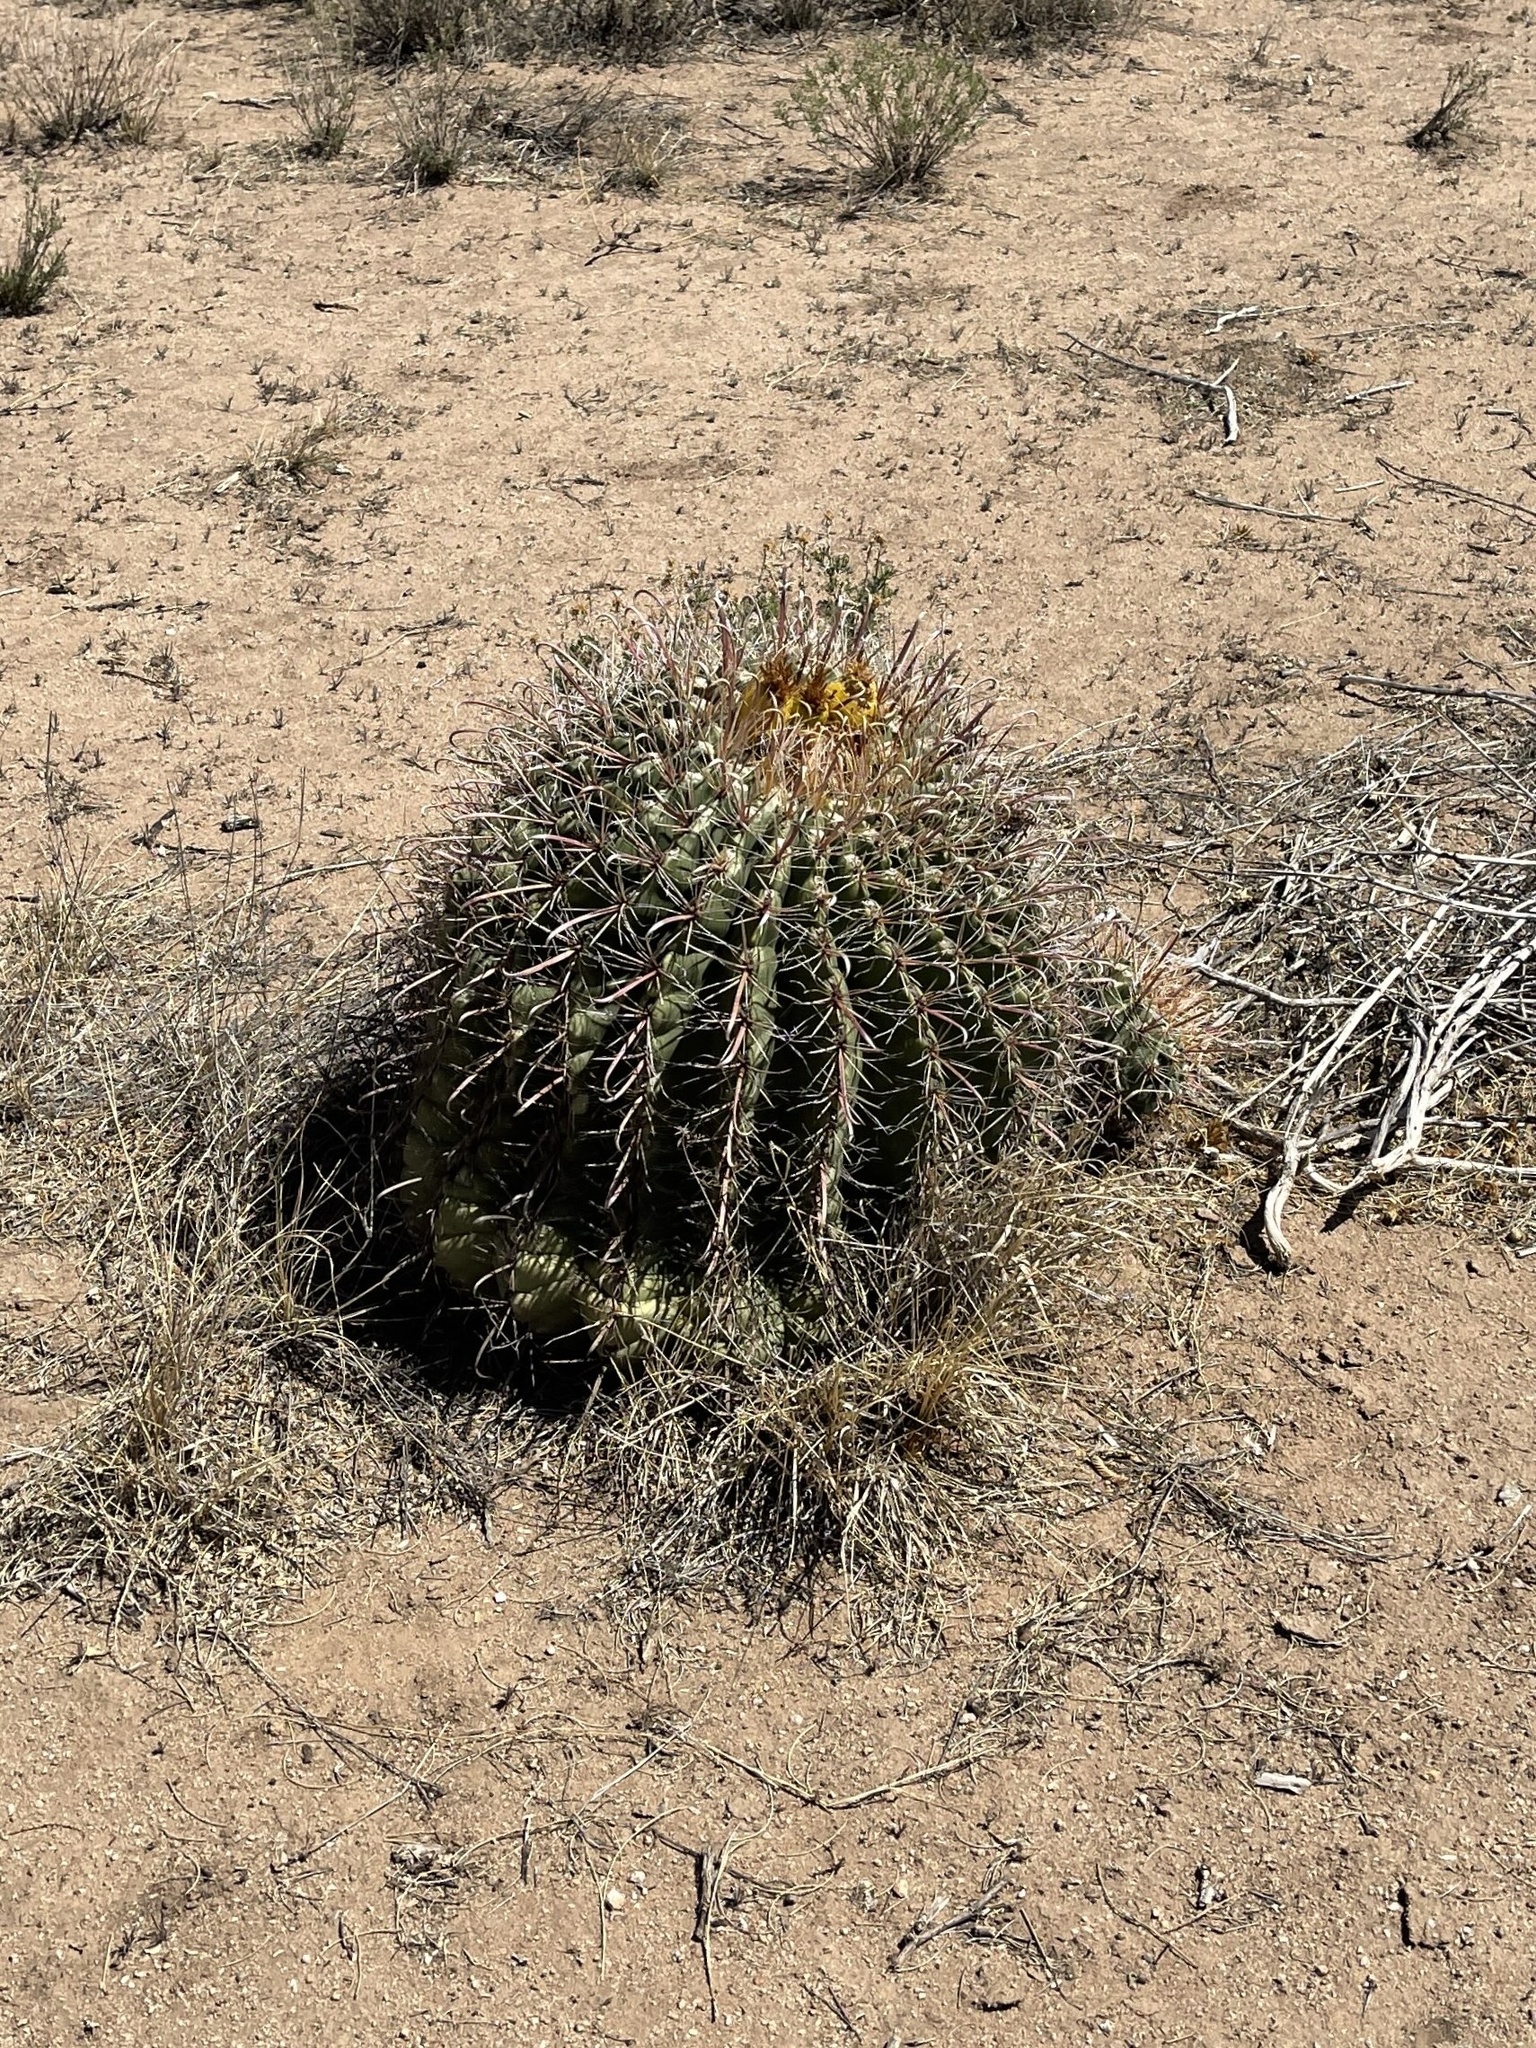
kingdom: Plantae
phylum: Tracheophyta
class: Magnoliopsida
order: Caryophyllales
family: Cactaceae
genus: Ferocactus
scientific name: Ferocactus wislizeni
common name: Candy barrel cactus
